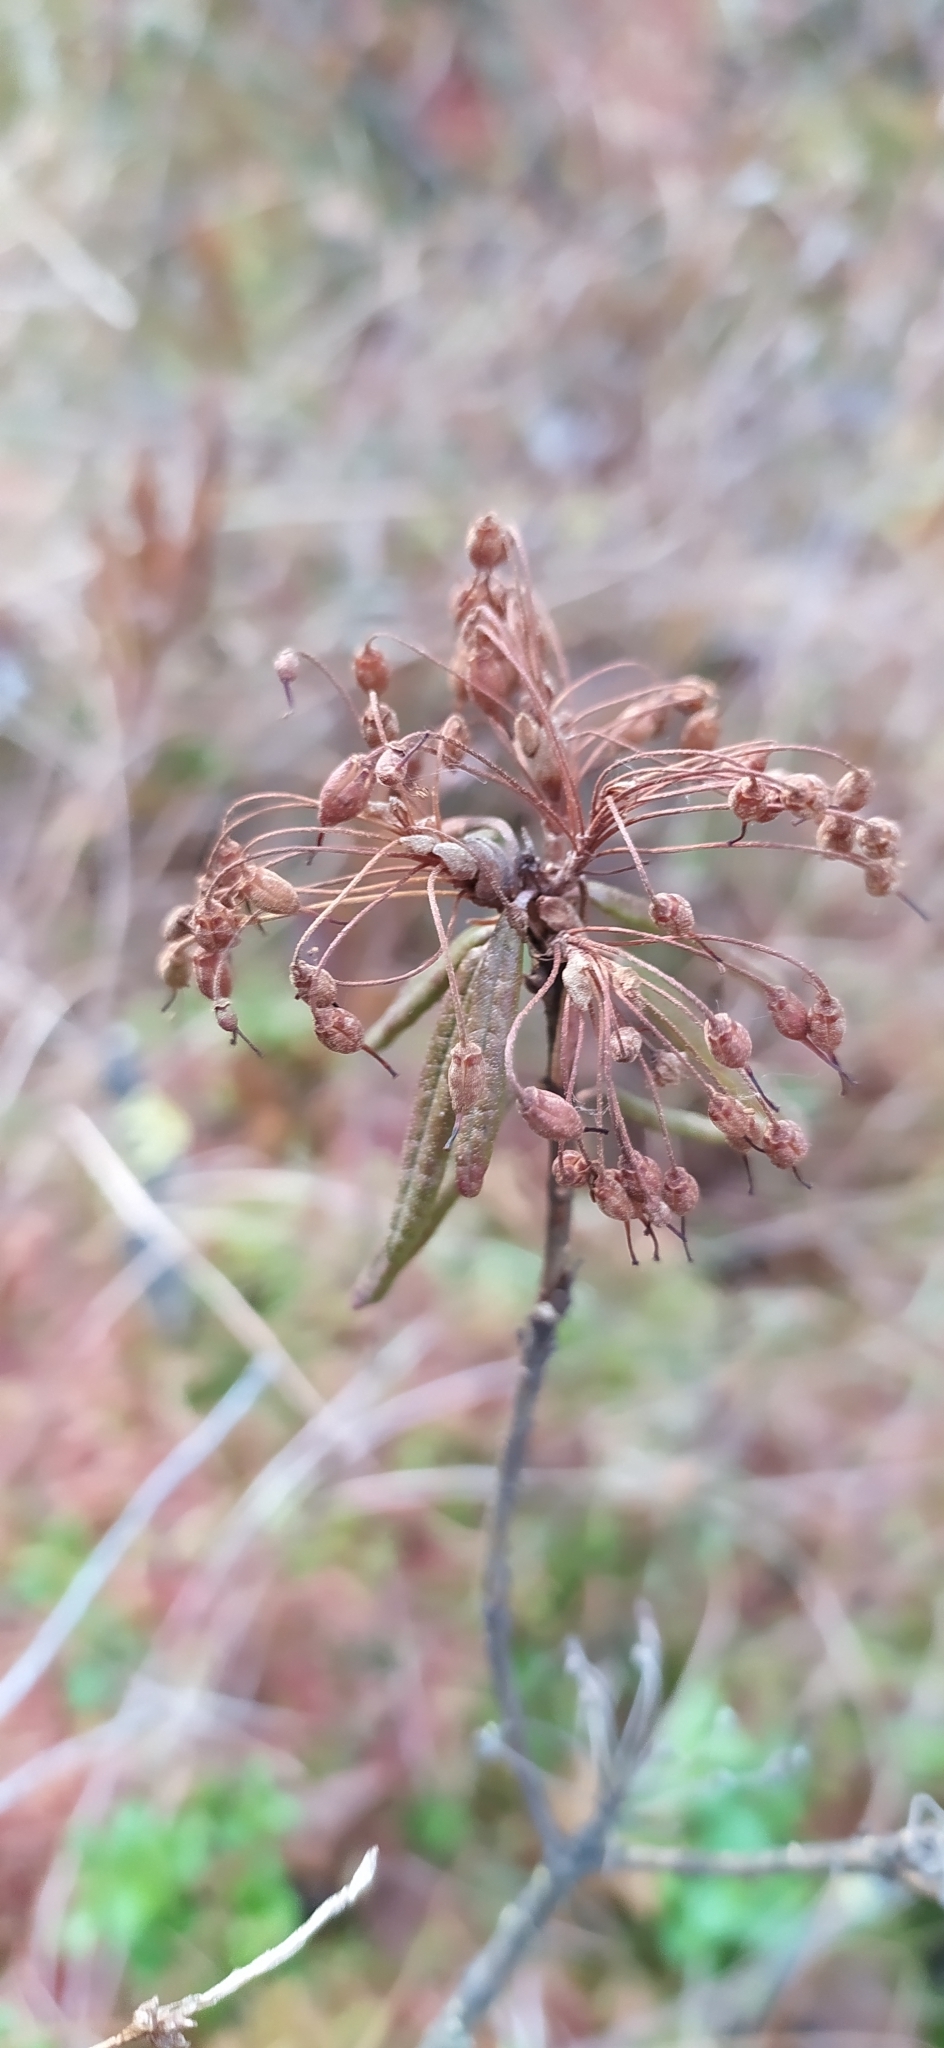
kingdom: Plantae
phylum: Tracheophyta
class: Magnoliopsida
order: Ericales
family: Ericaceae
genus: Rhododendron
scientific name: Rhododendron tomentosum
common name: Marsh labrador tea
